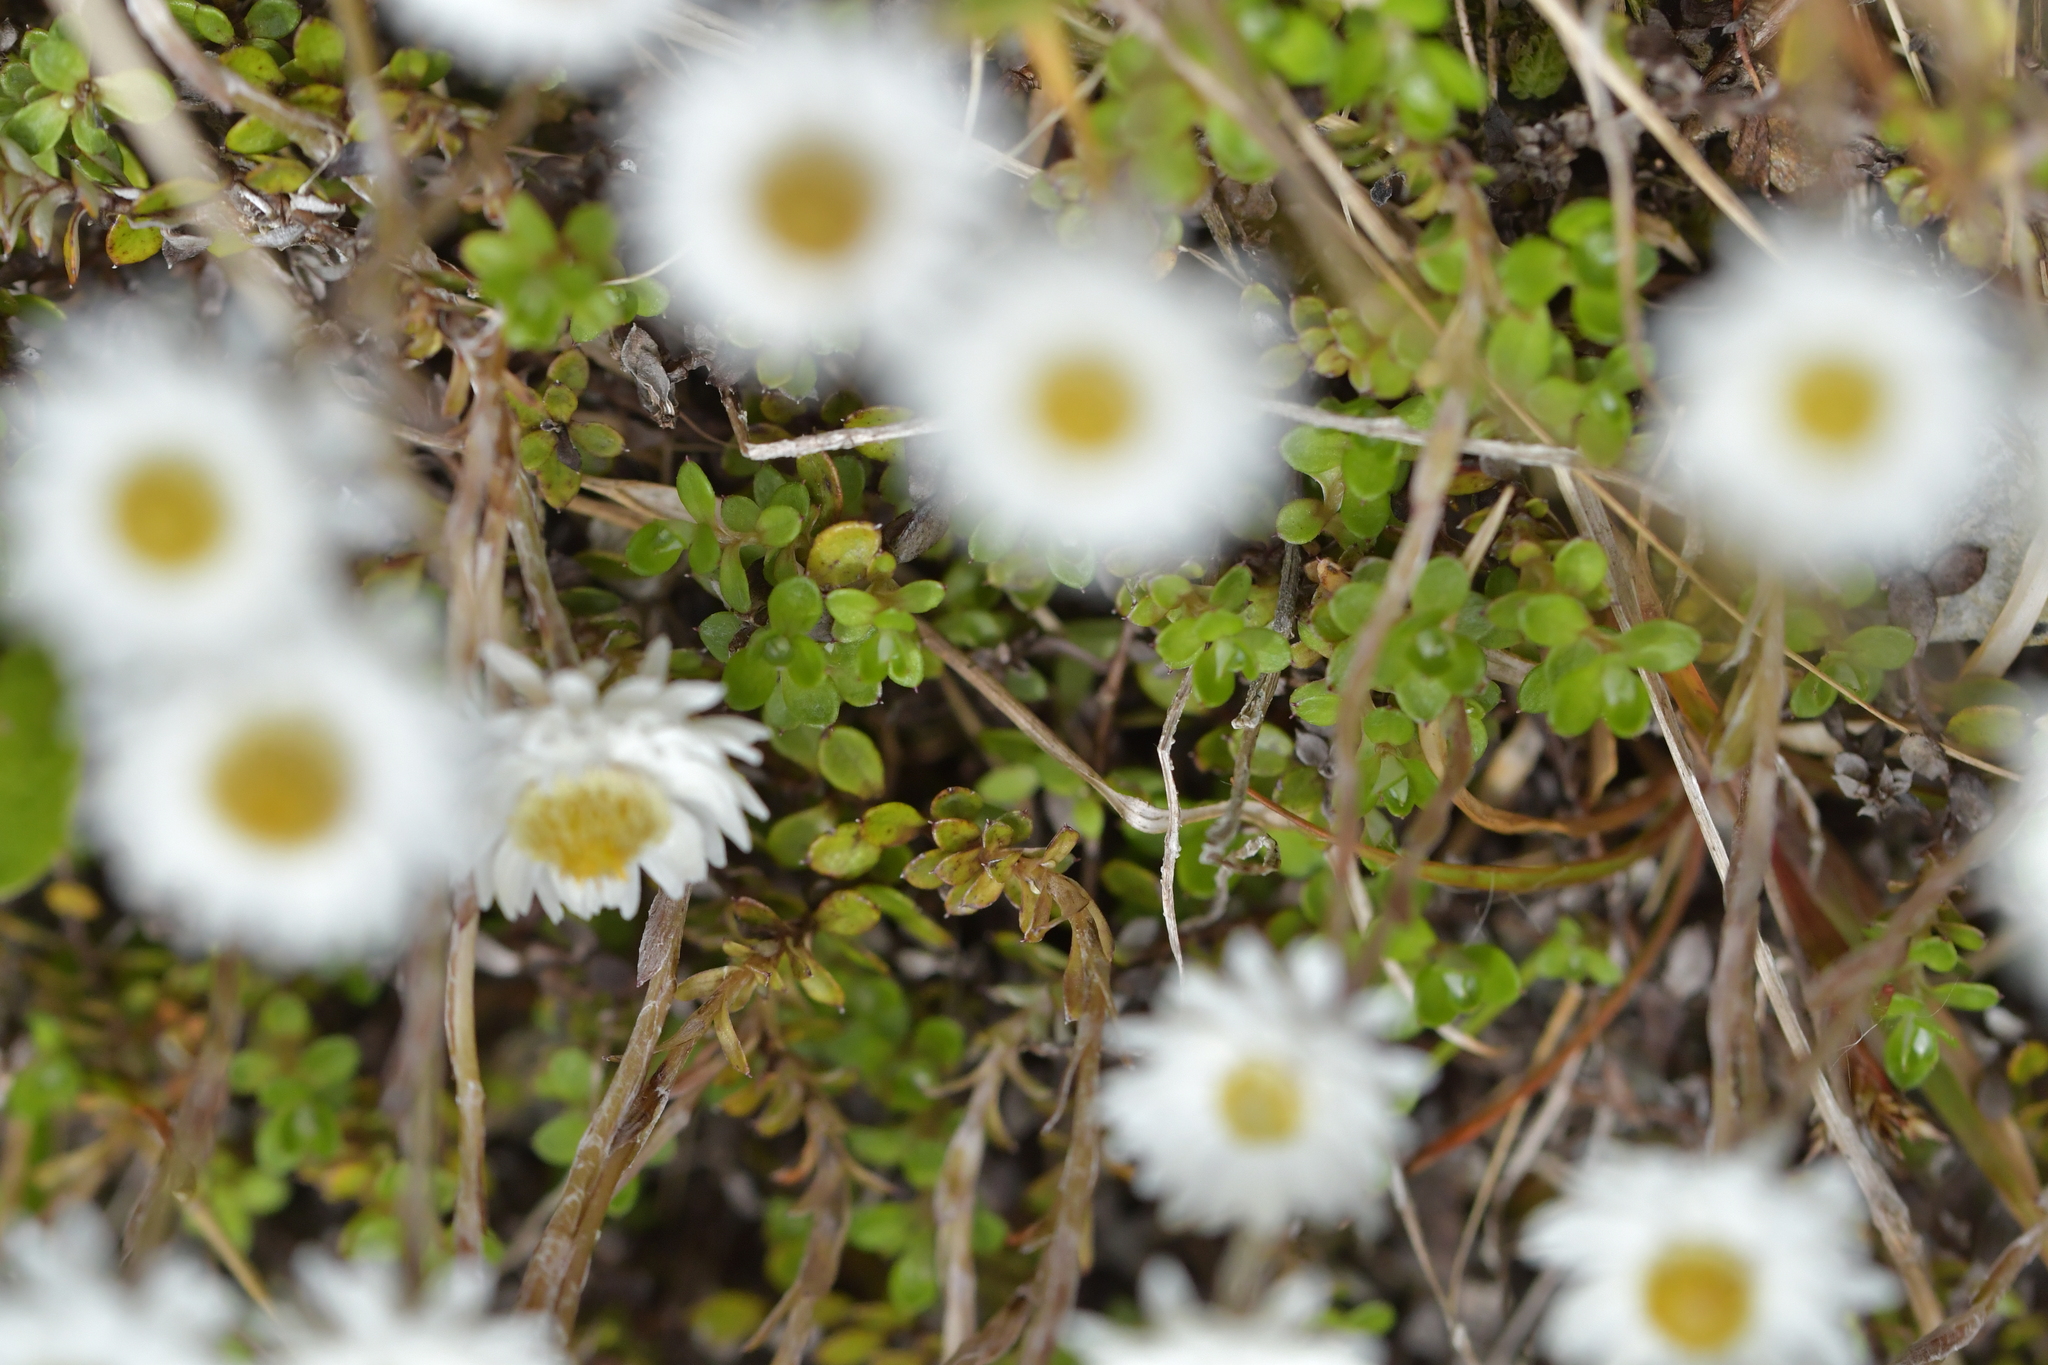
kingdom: Plantae
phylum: Tracheophyta
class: Magnoliopsida
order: Asterales
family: Asteraceae
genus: Anaphalioides
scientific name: Anaphalioides bellidioides
